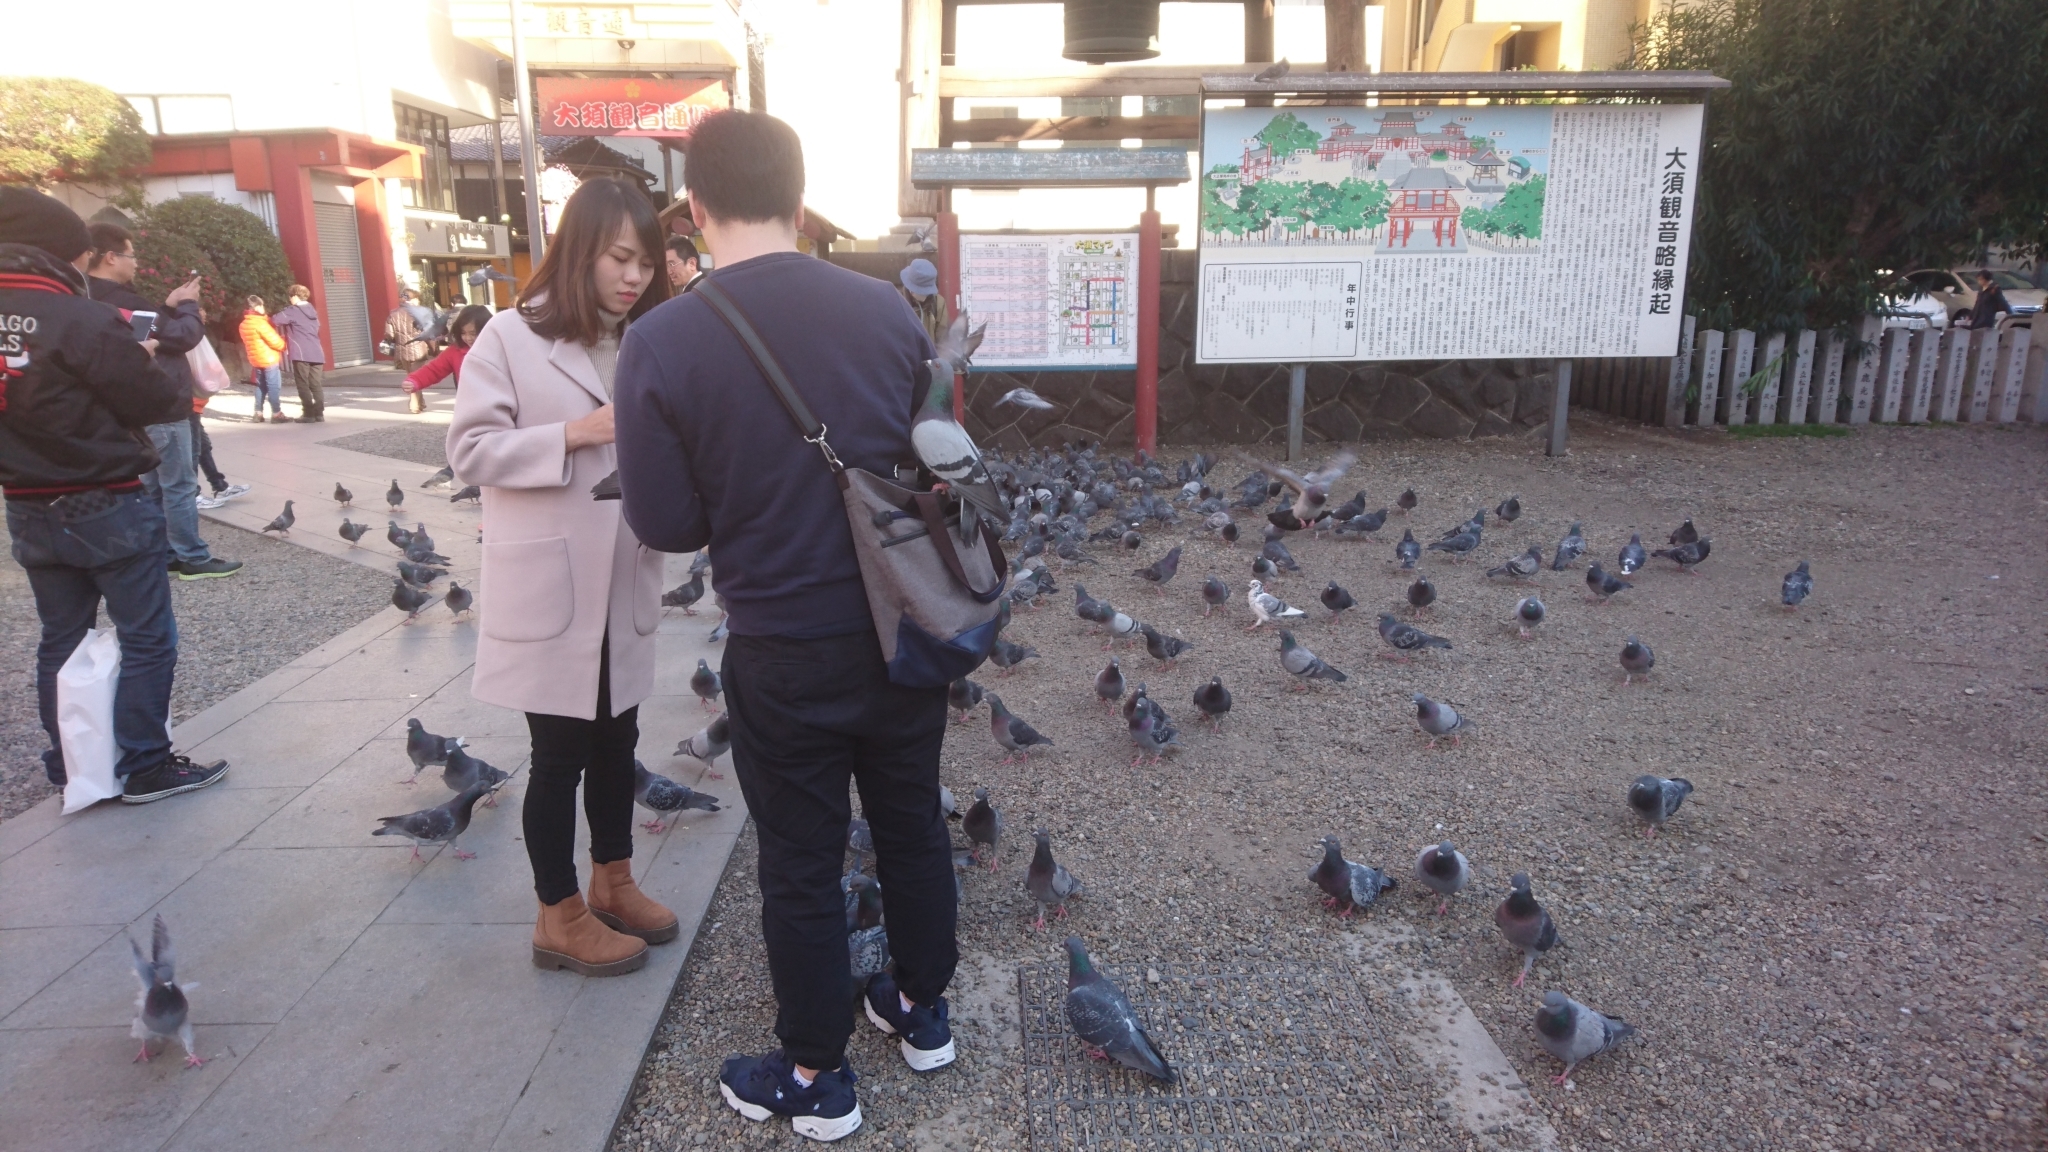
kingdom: Animalia
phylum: Chordata
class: Aves
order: Columbiformes
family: Columbidae
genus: Columba
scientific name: Columba livia
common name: Rock pigeon
